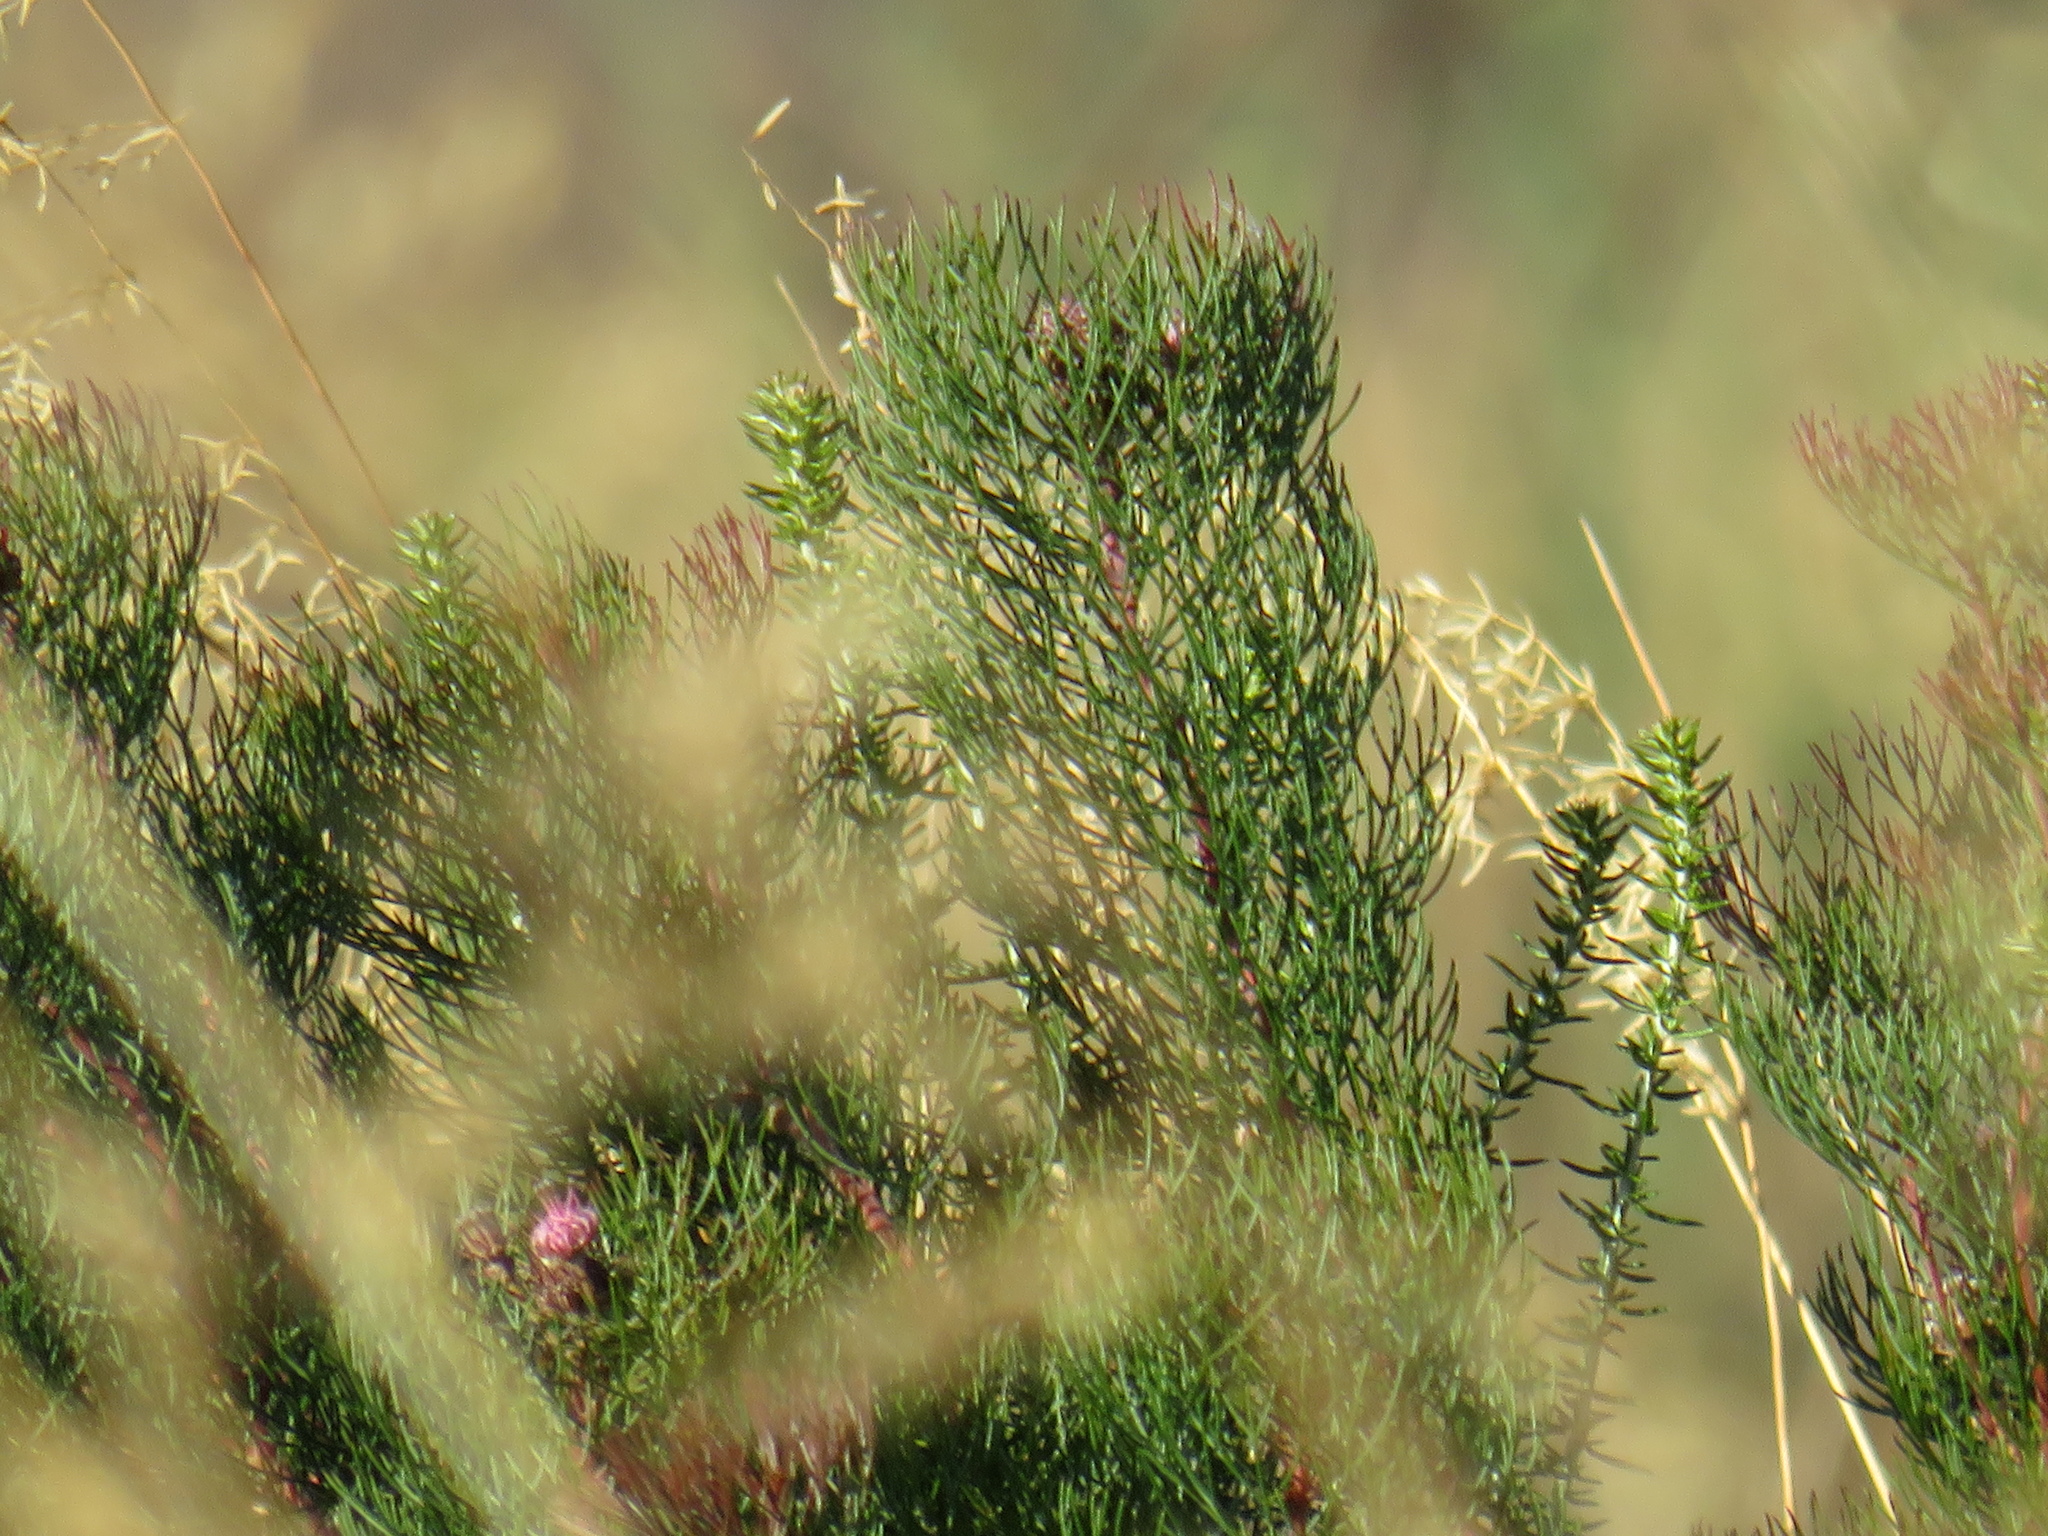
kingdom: Plantae
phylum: Tracheophyta
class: Magnoliopsida
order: Proteales
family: Proteaceae
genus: Serruria
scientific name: Serruria fasciflora
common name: Common pin spiderhead
